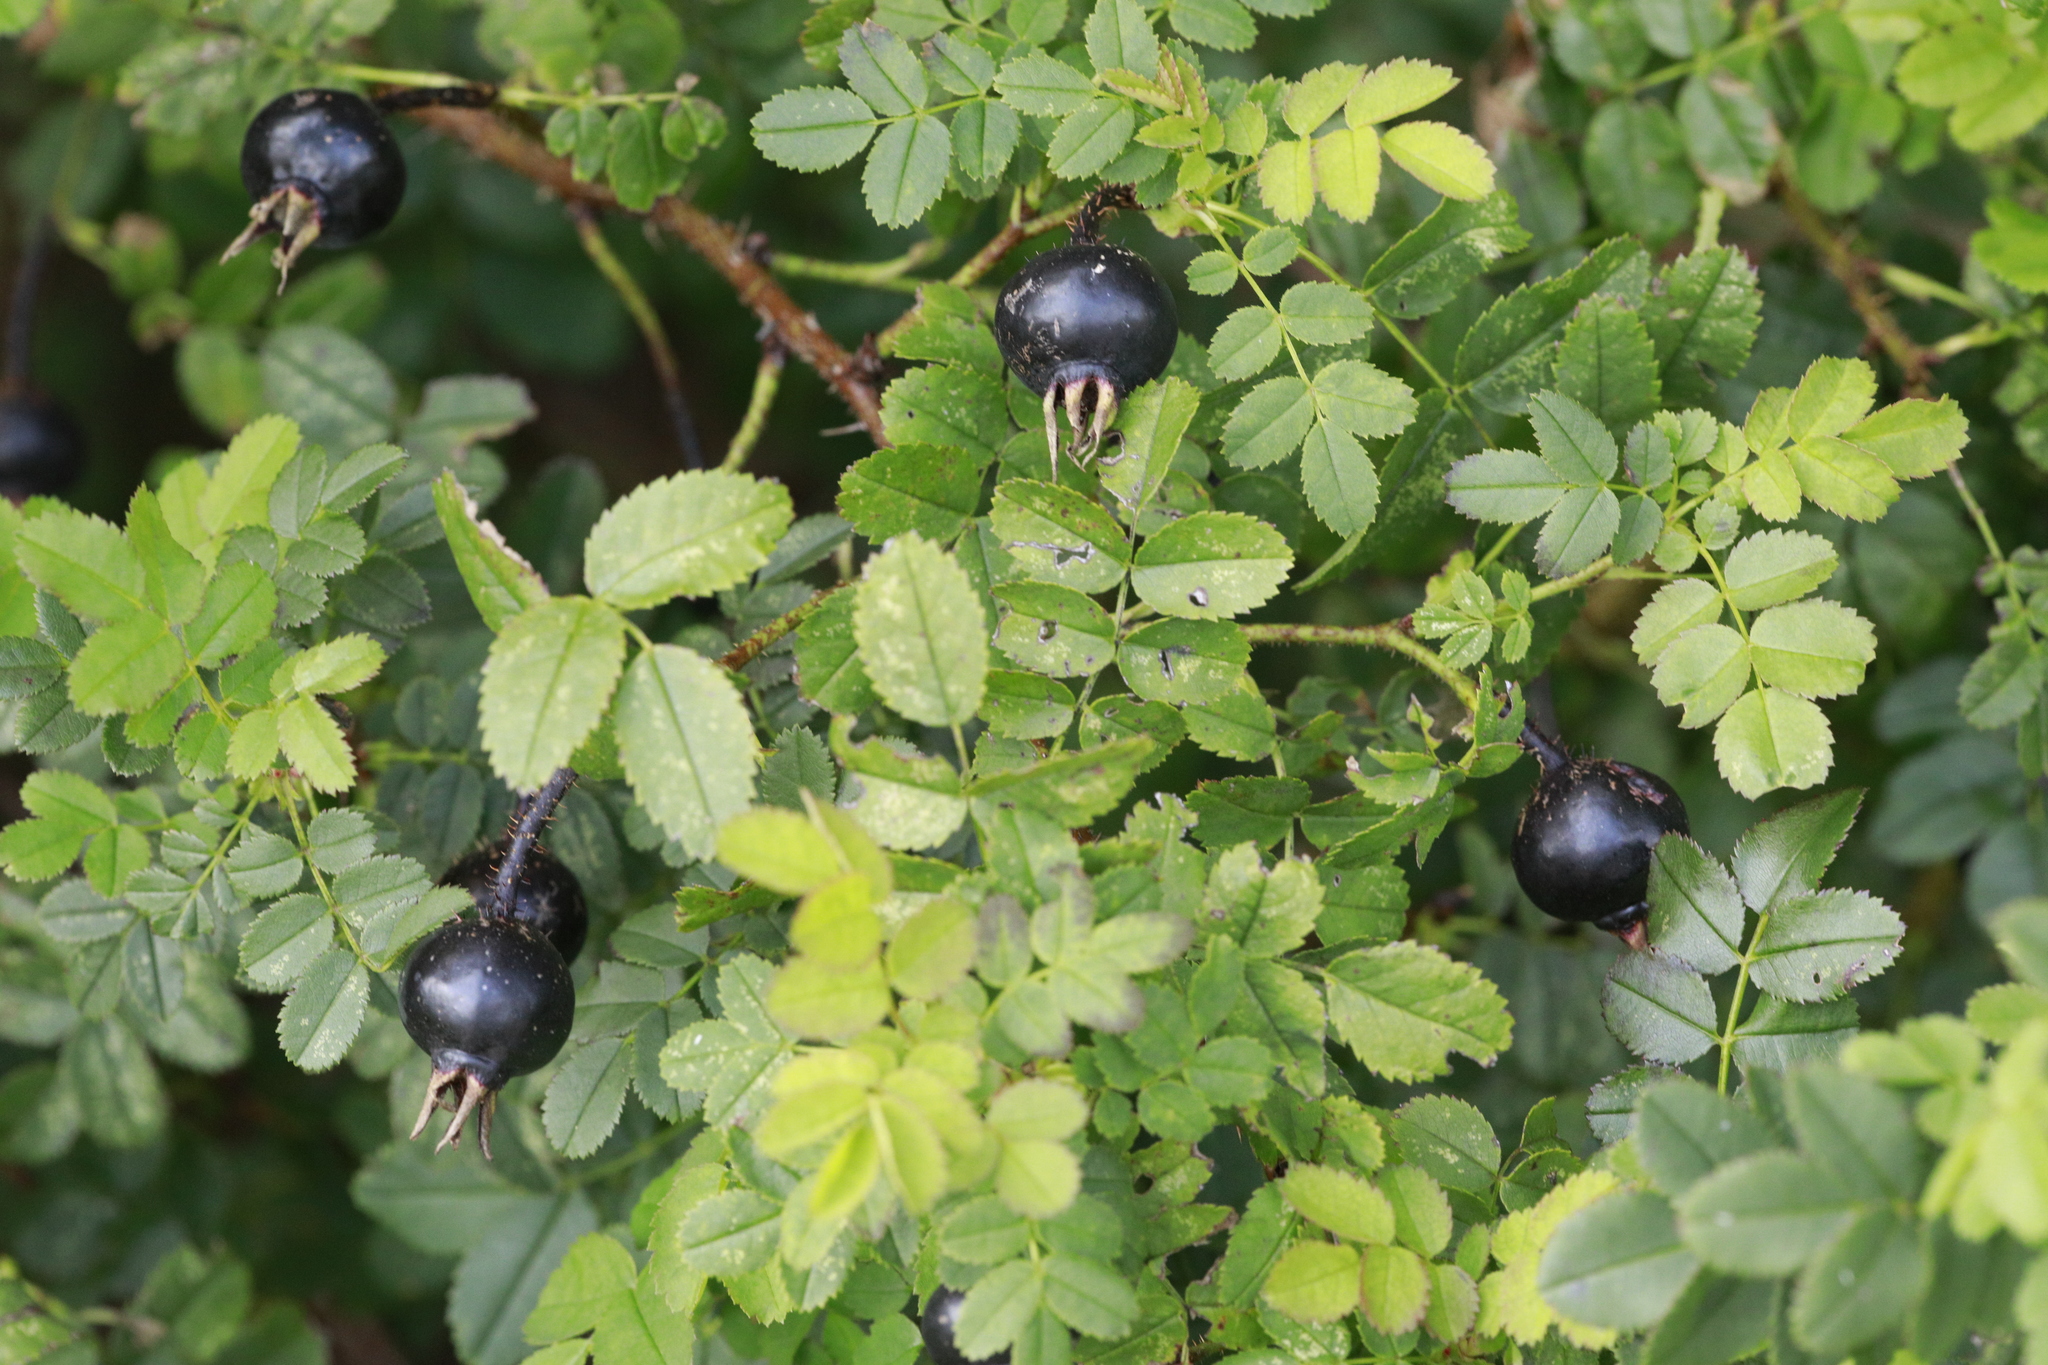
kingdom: Plantae
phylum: Tracheophyta
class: Magnoliopsida
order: Rosales
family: Rosaceae
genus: Rosa
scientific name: Rosa spinosissima
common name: Burnet rose
